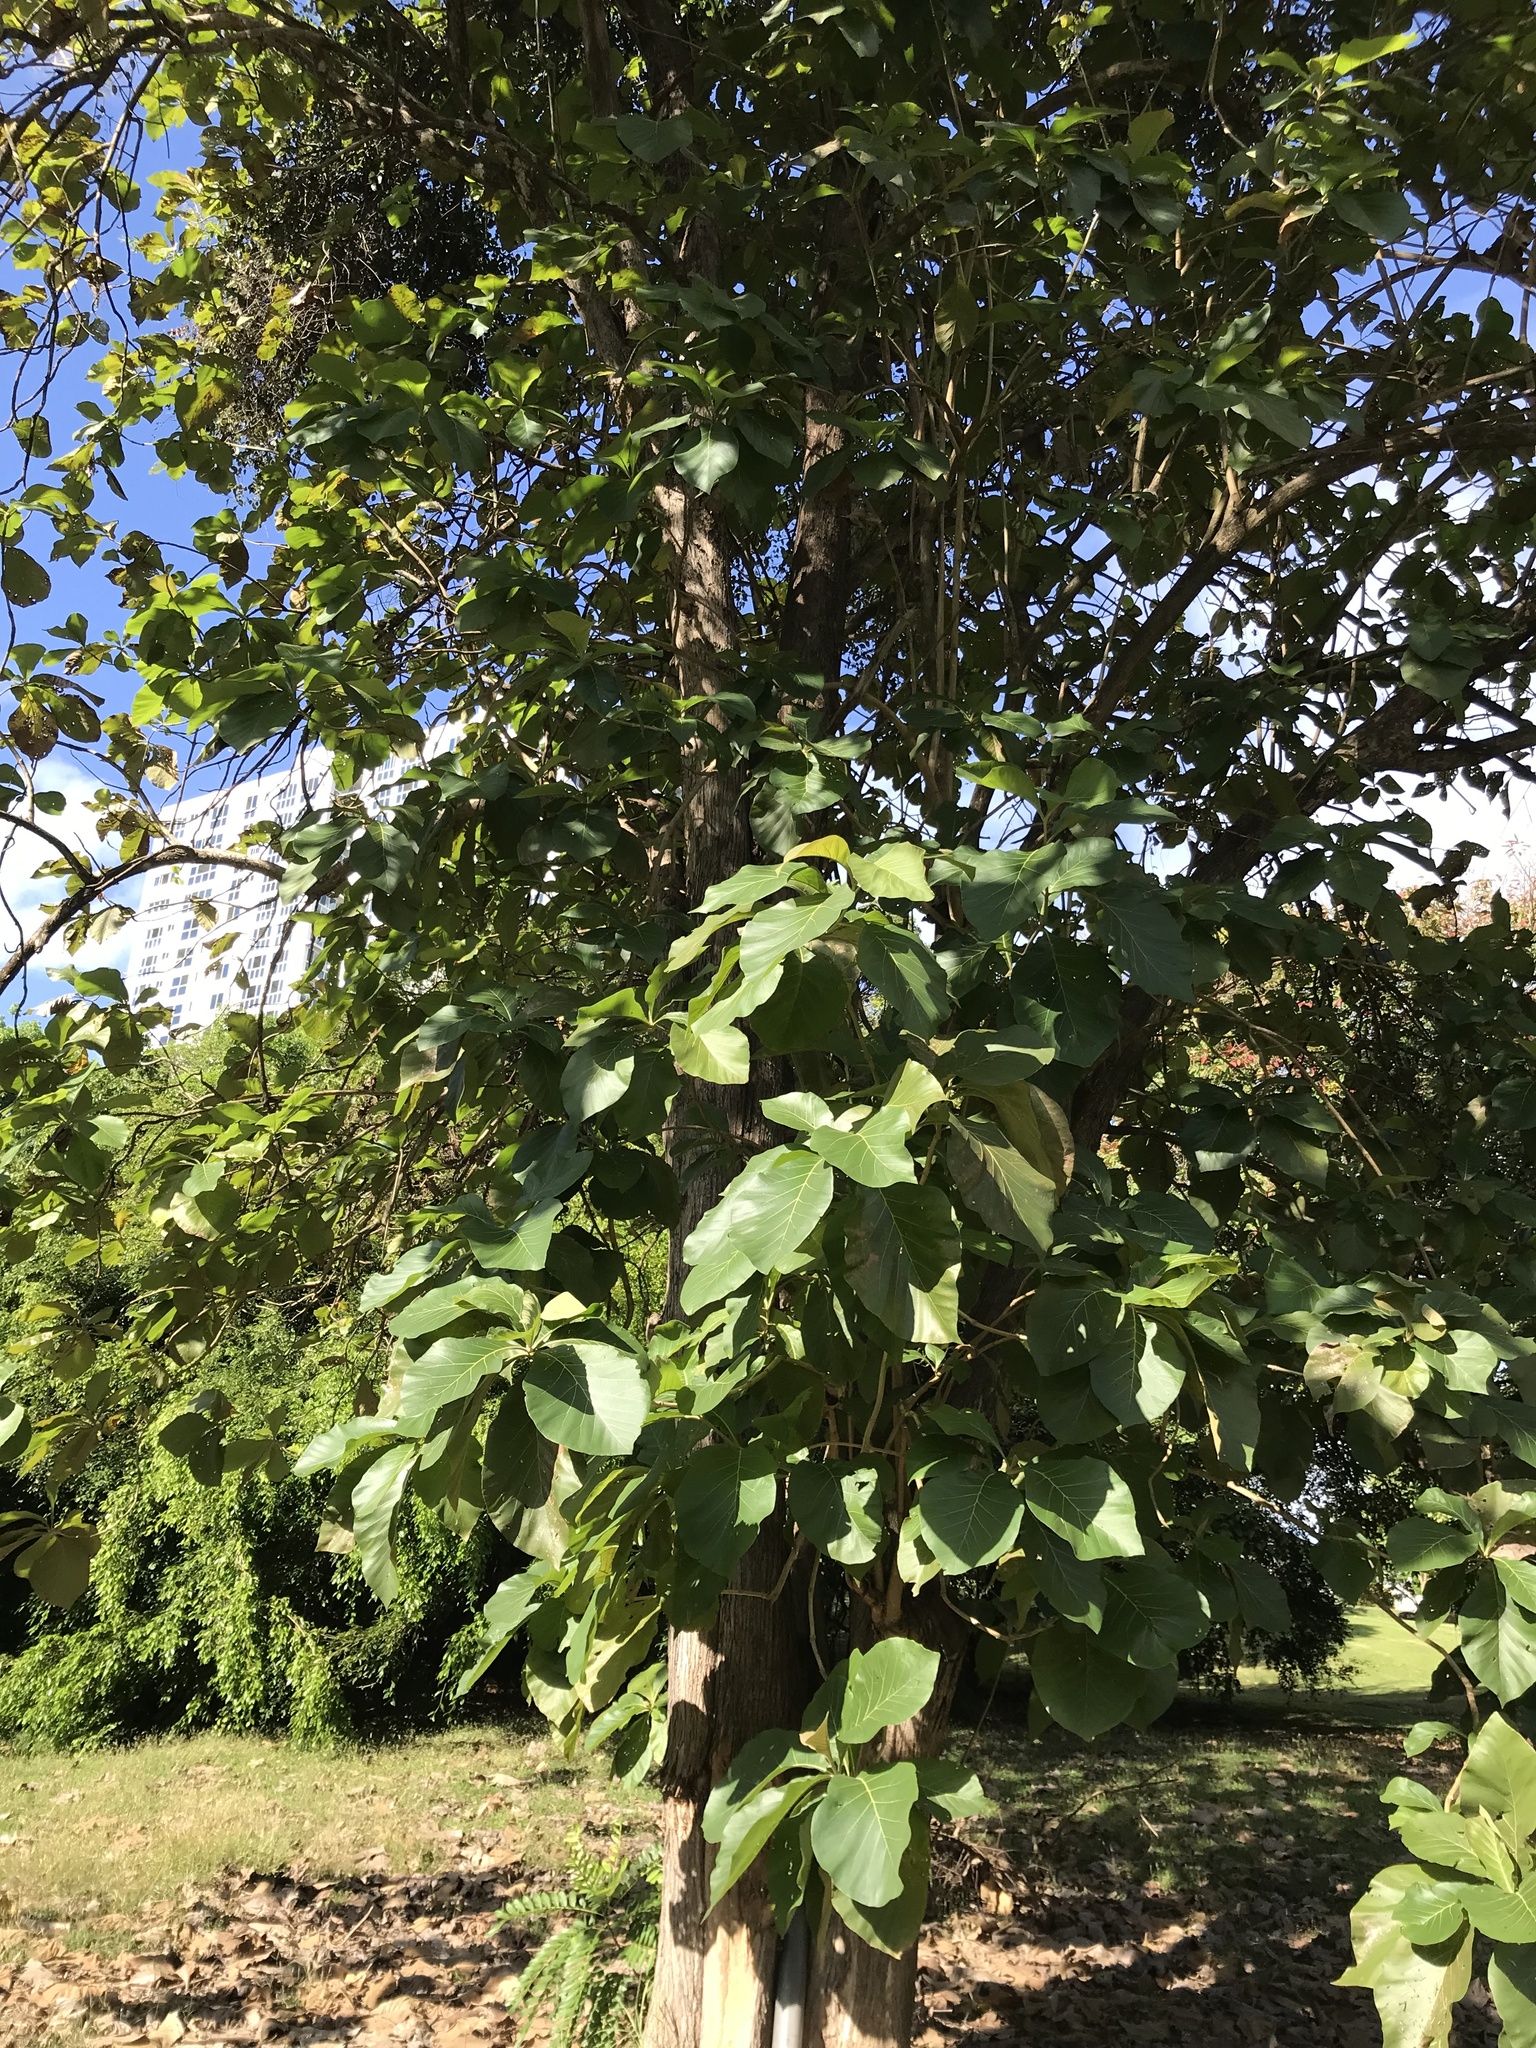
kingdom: Plantae
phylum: Tracheophyta
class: Magnoliopsida
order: Lamiales
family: Lamiaceae
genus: Tectona
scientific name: Tectona grandis
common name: Teak
